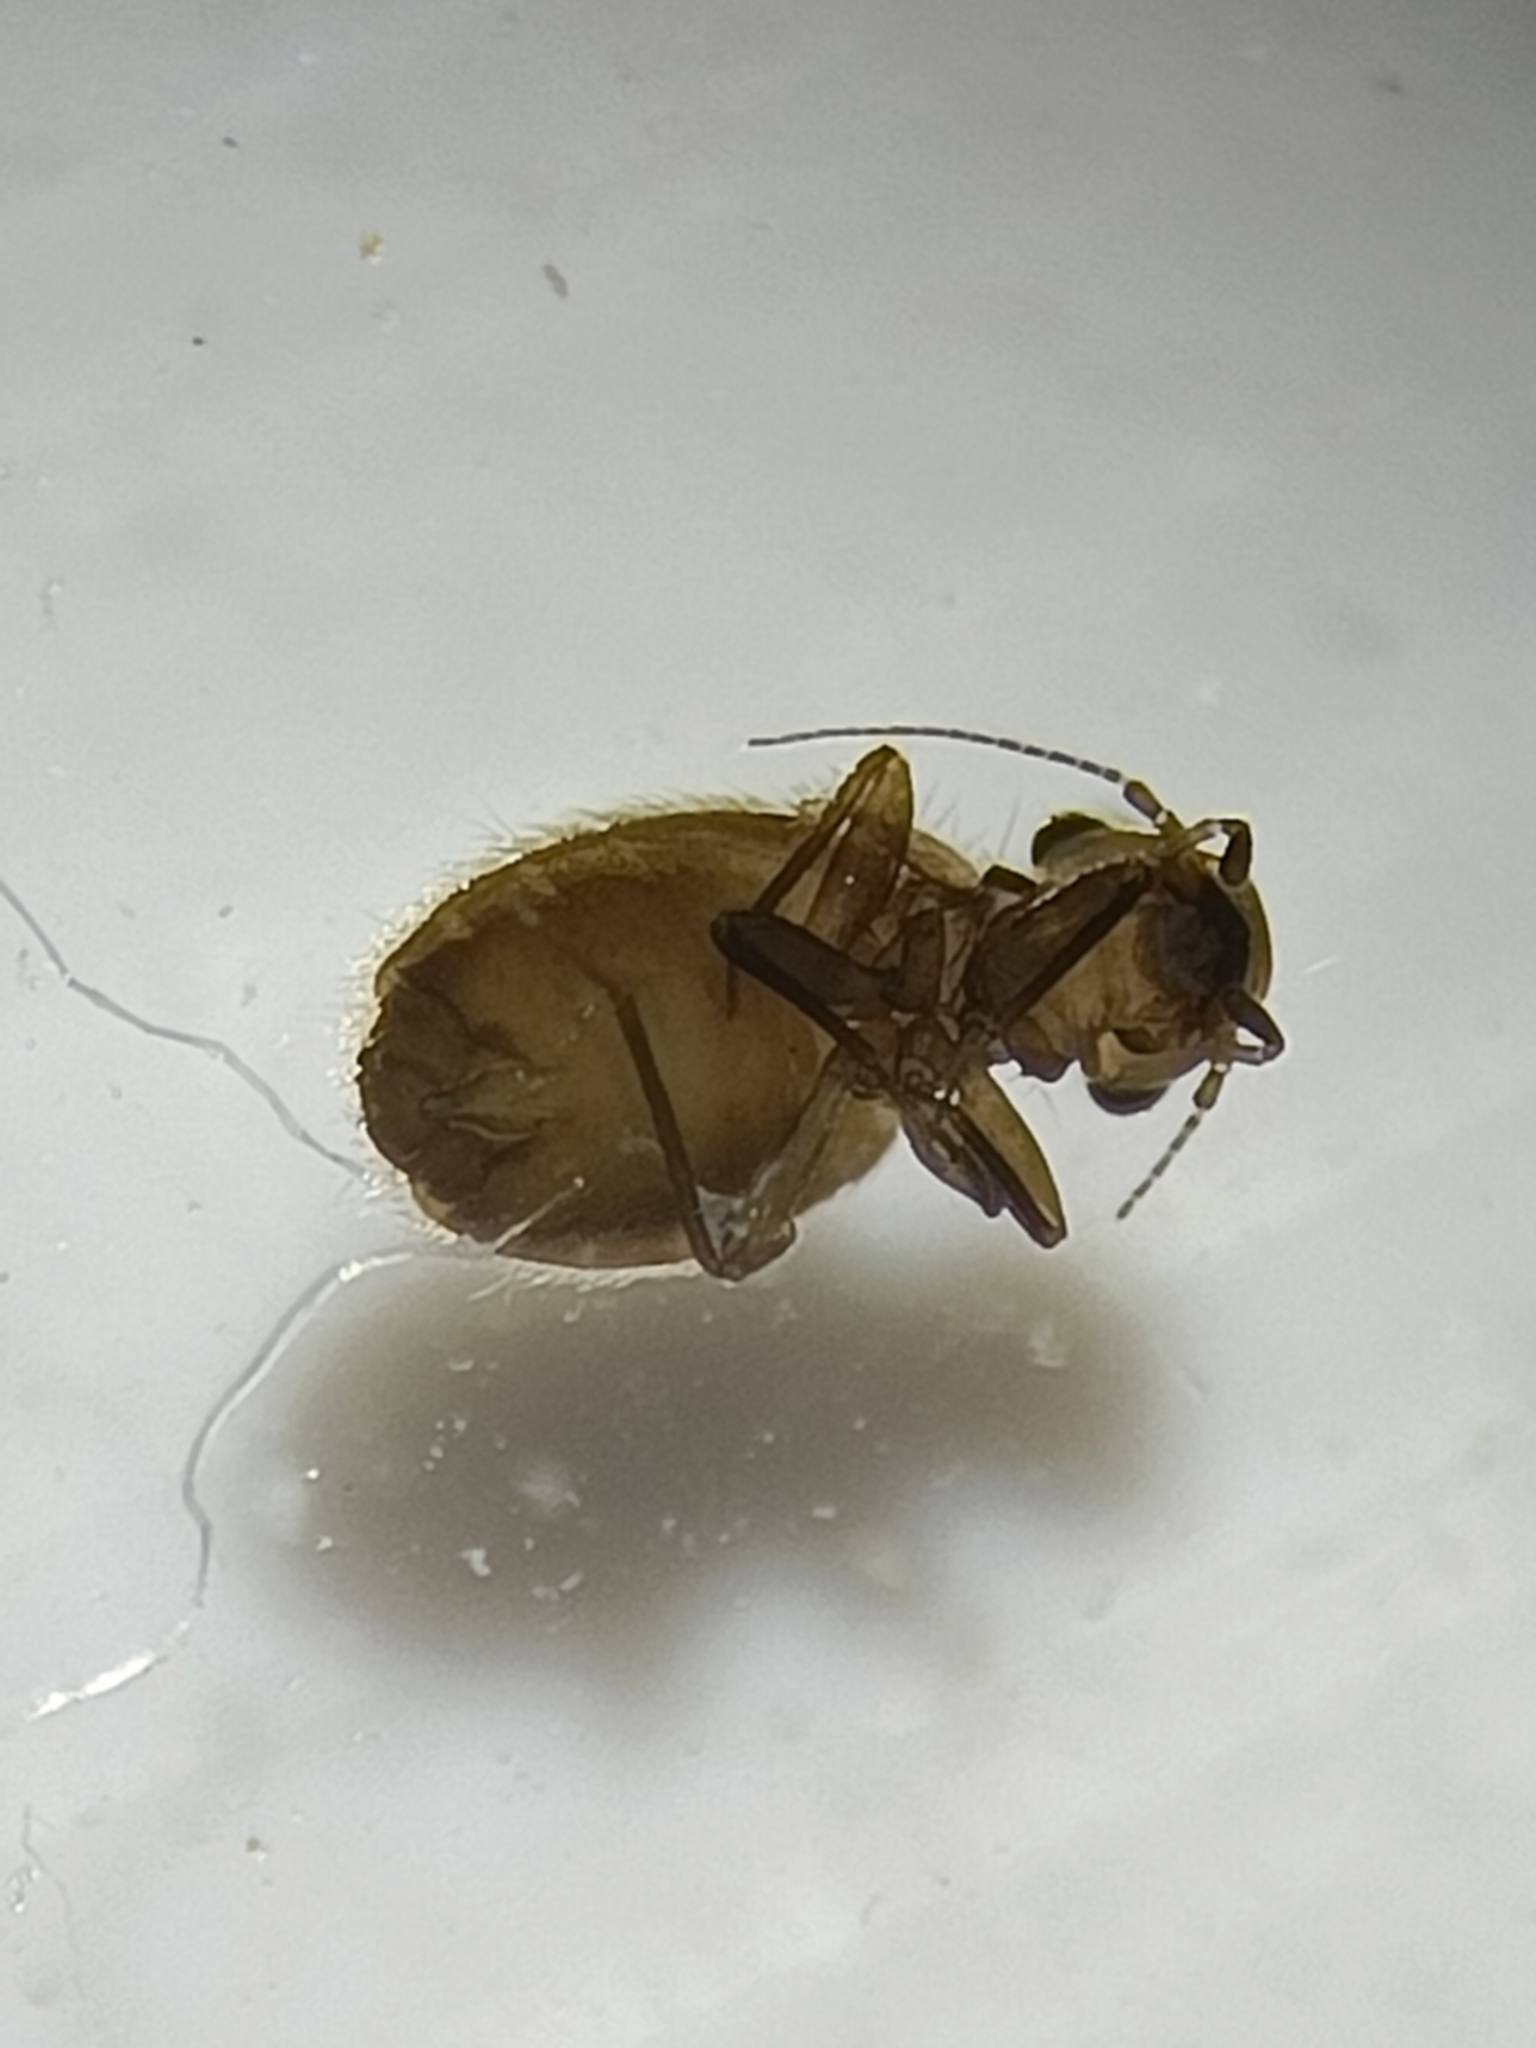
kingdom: Animalia
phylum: Arthropoda
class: Insecta
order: Psocodea
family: Trogiidae
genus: Lepinotus
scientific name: Lepinotus patruelis
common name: Granary book louse
